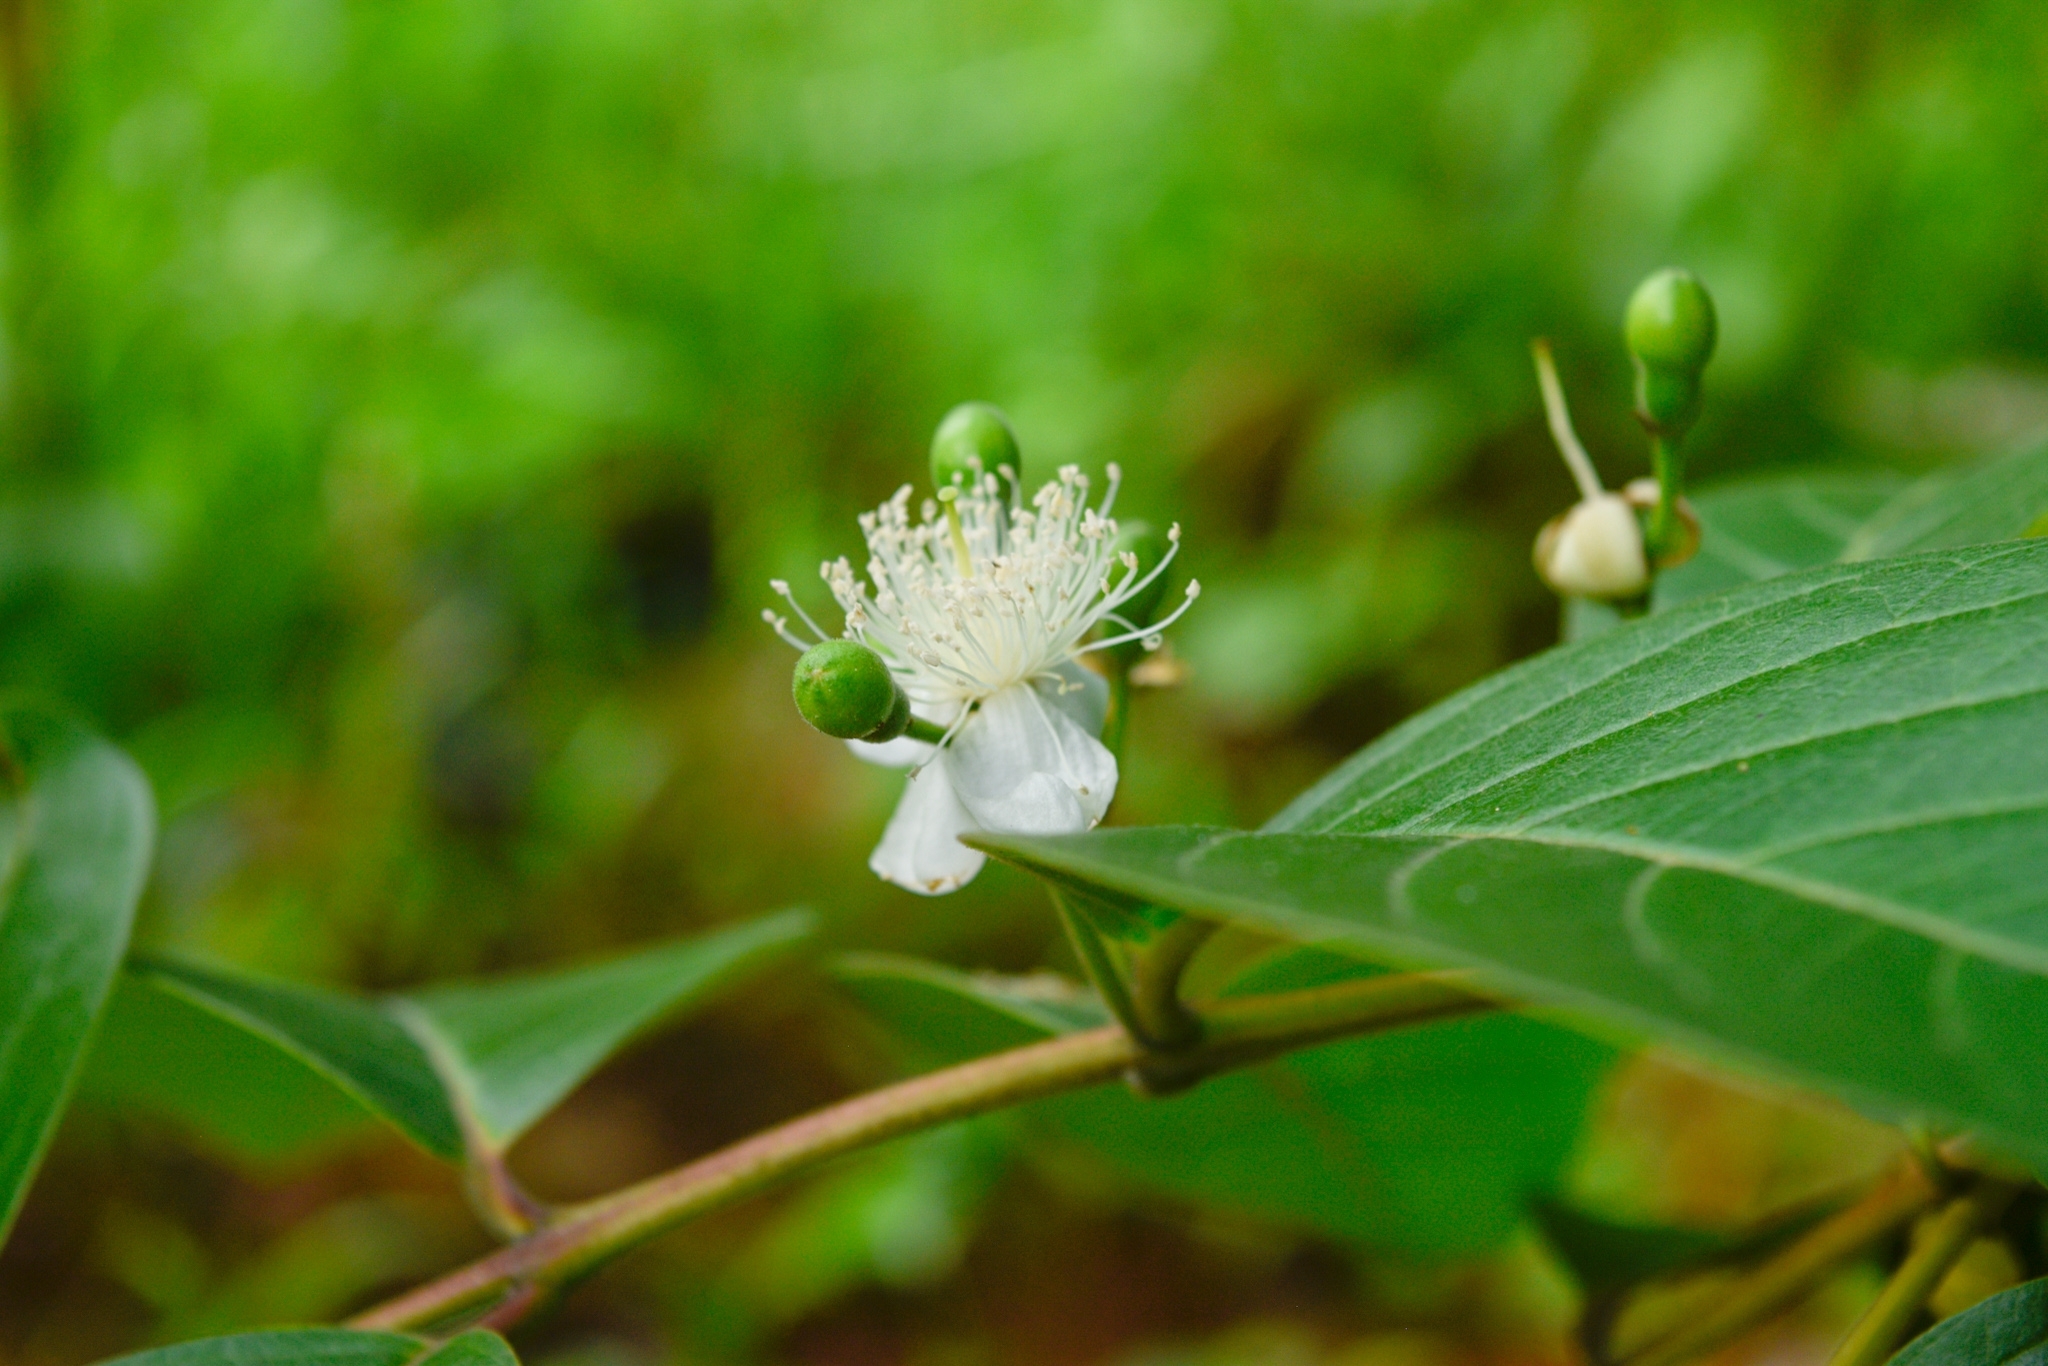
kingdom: Plantae
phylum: Tracheophyta
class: Magnoliopsida
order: Myrtales
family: Myrtaceae
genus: Psidium
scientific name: Psidium guajava
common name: Guava
